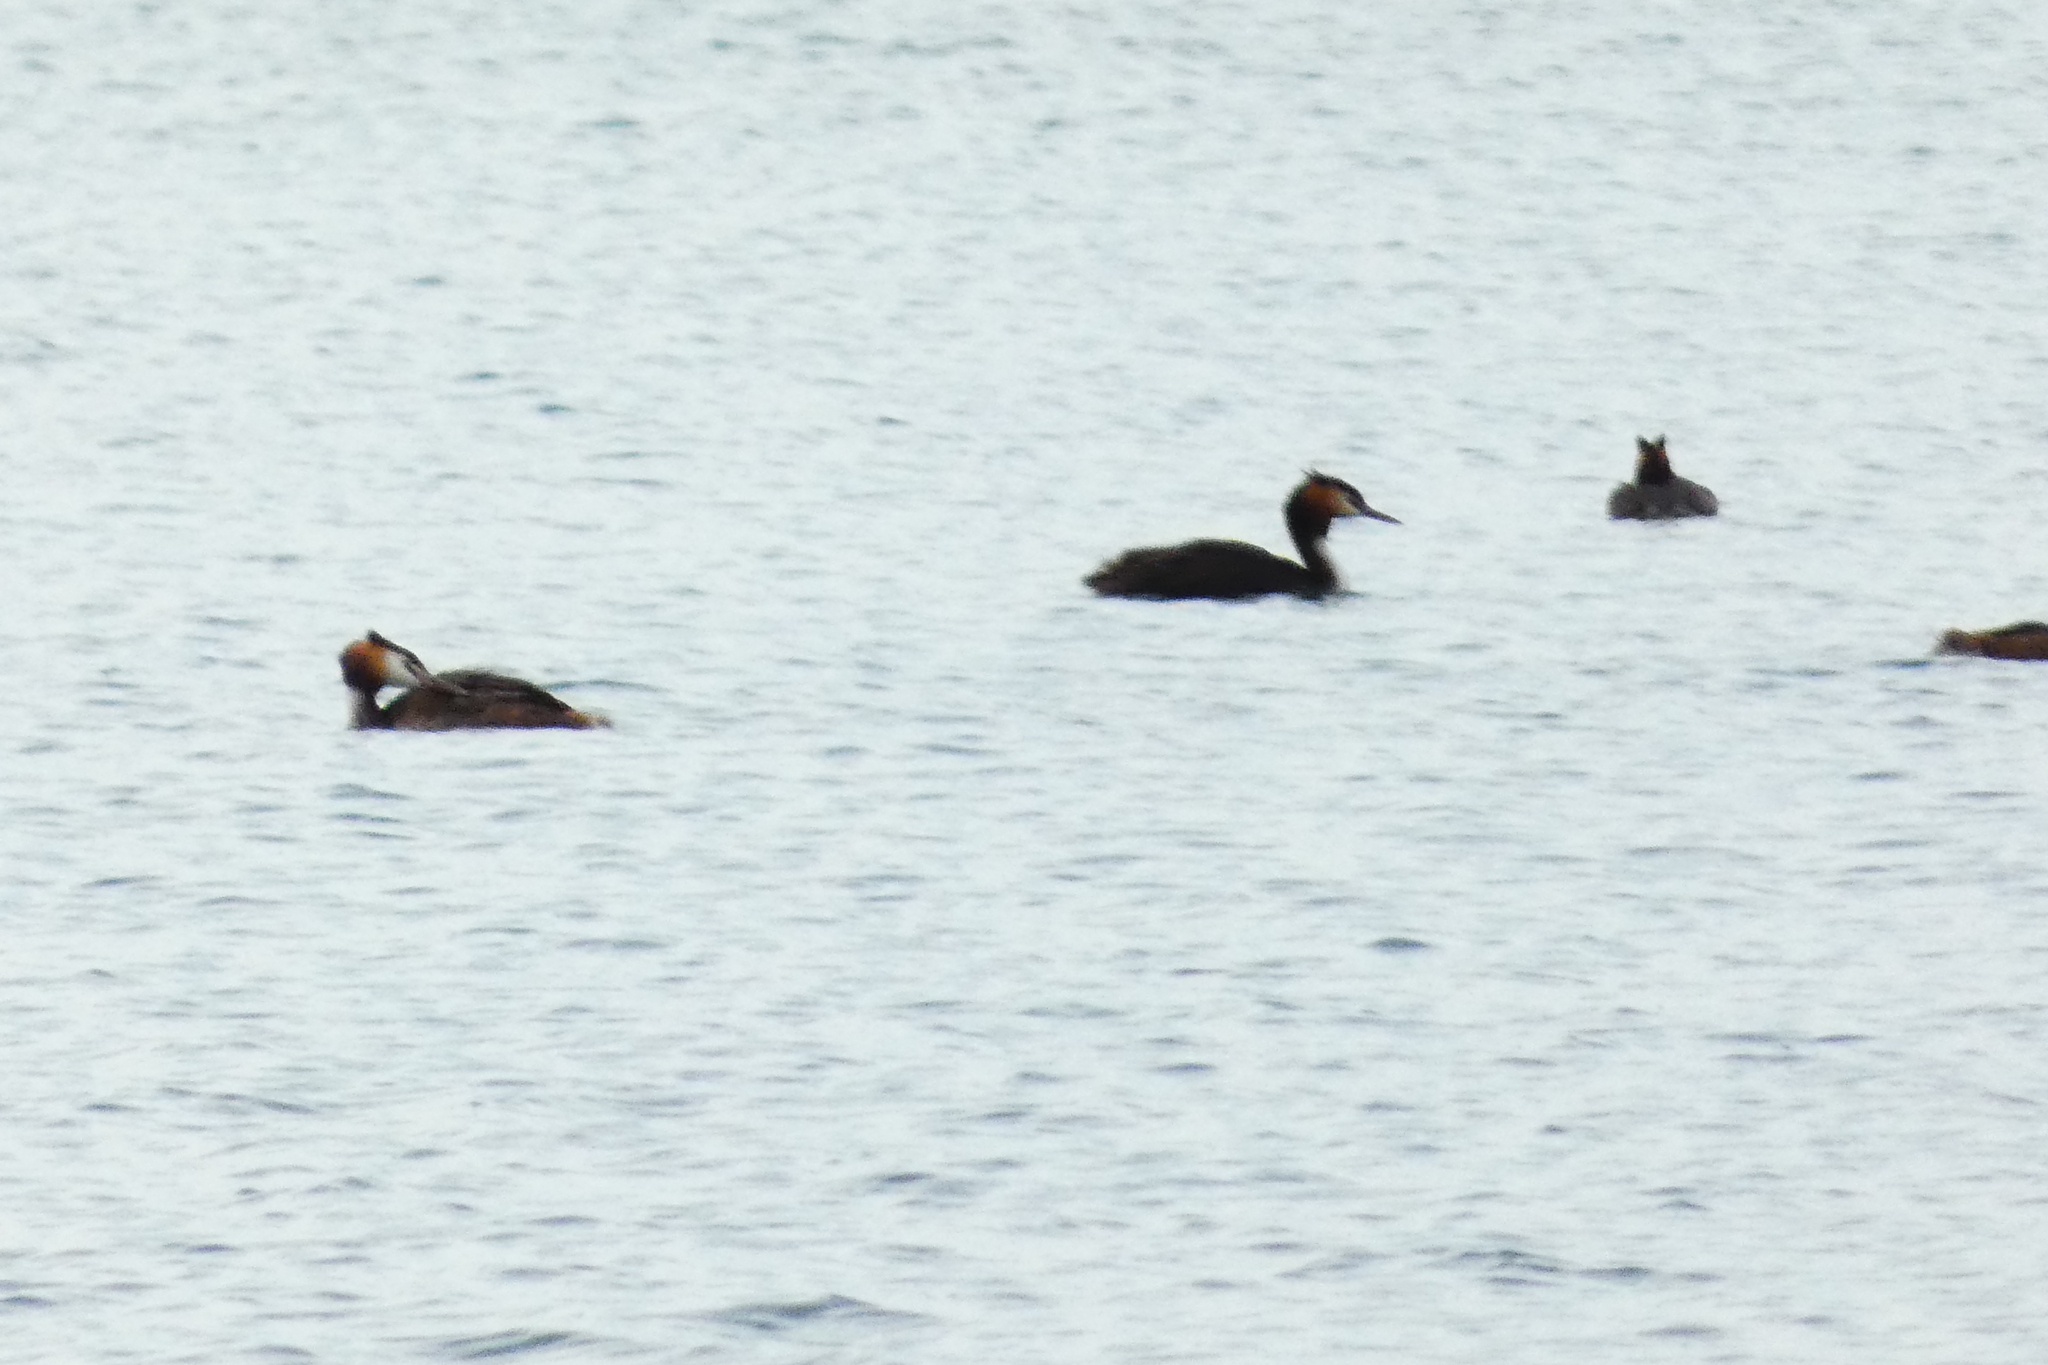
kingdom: Animalia
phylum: Chordata
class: Aves
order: Podicipediformes
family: Podicipedidae
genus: Podiceps
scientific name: Podiceps cristatus
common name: Great crested grebe
